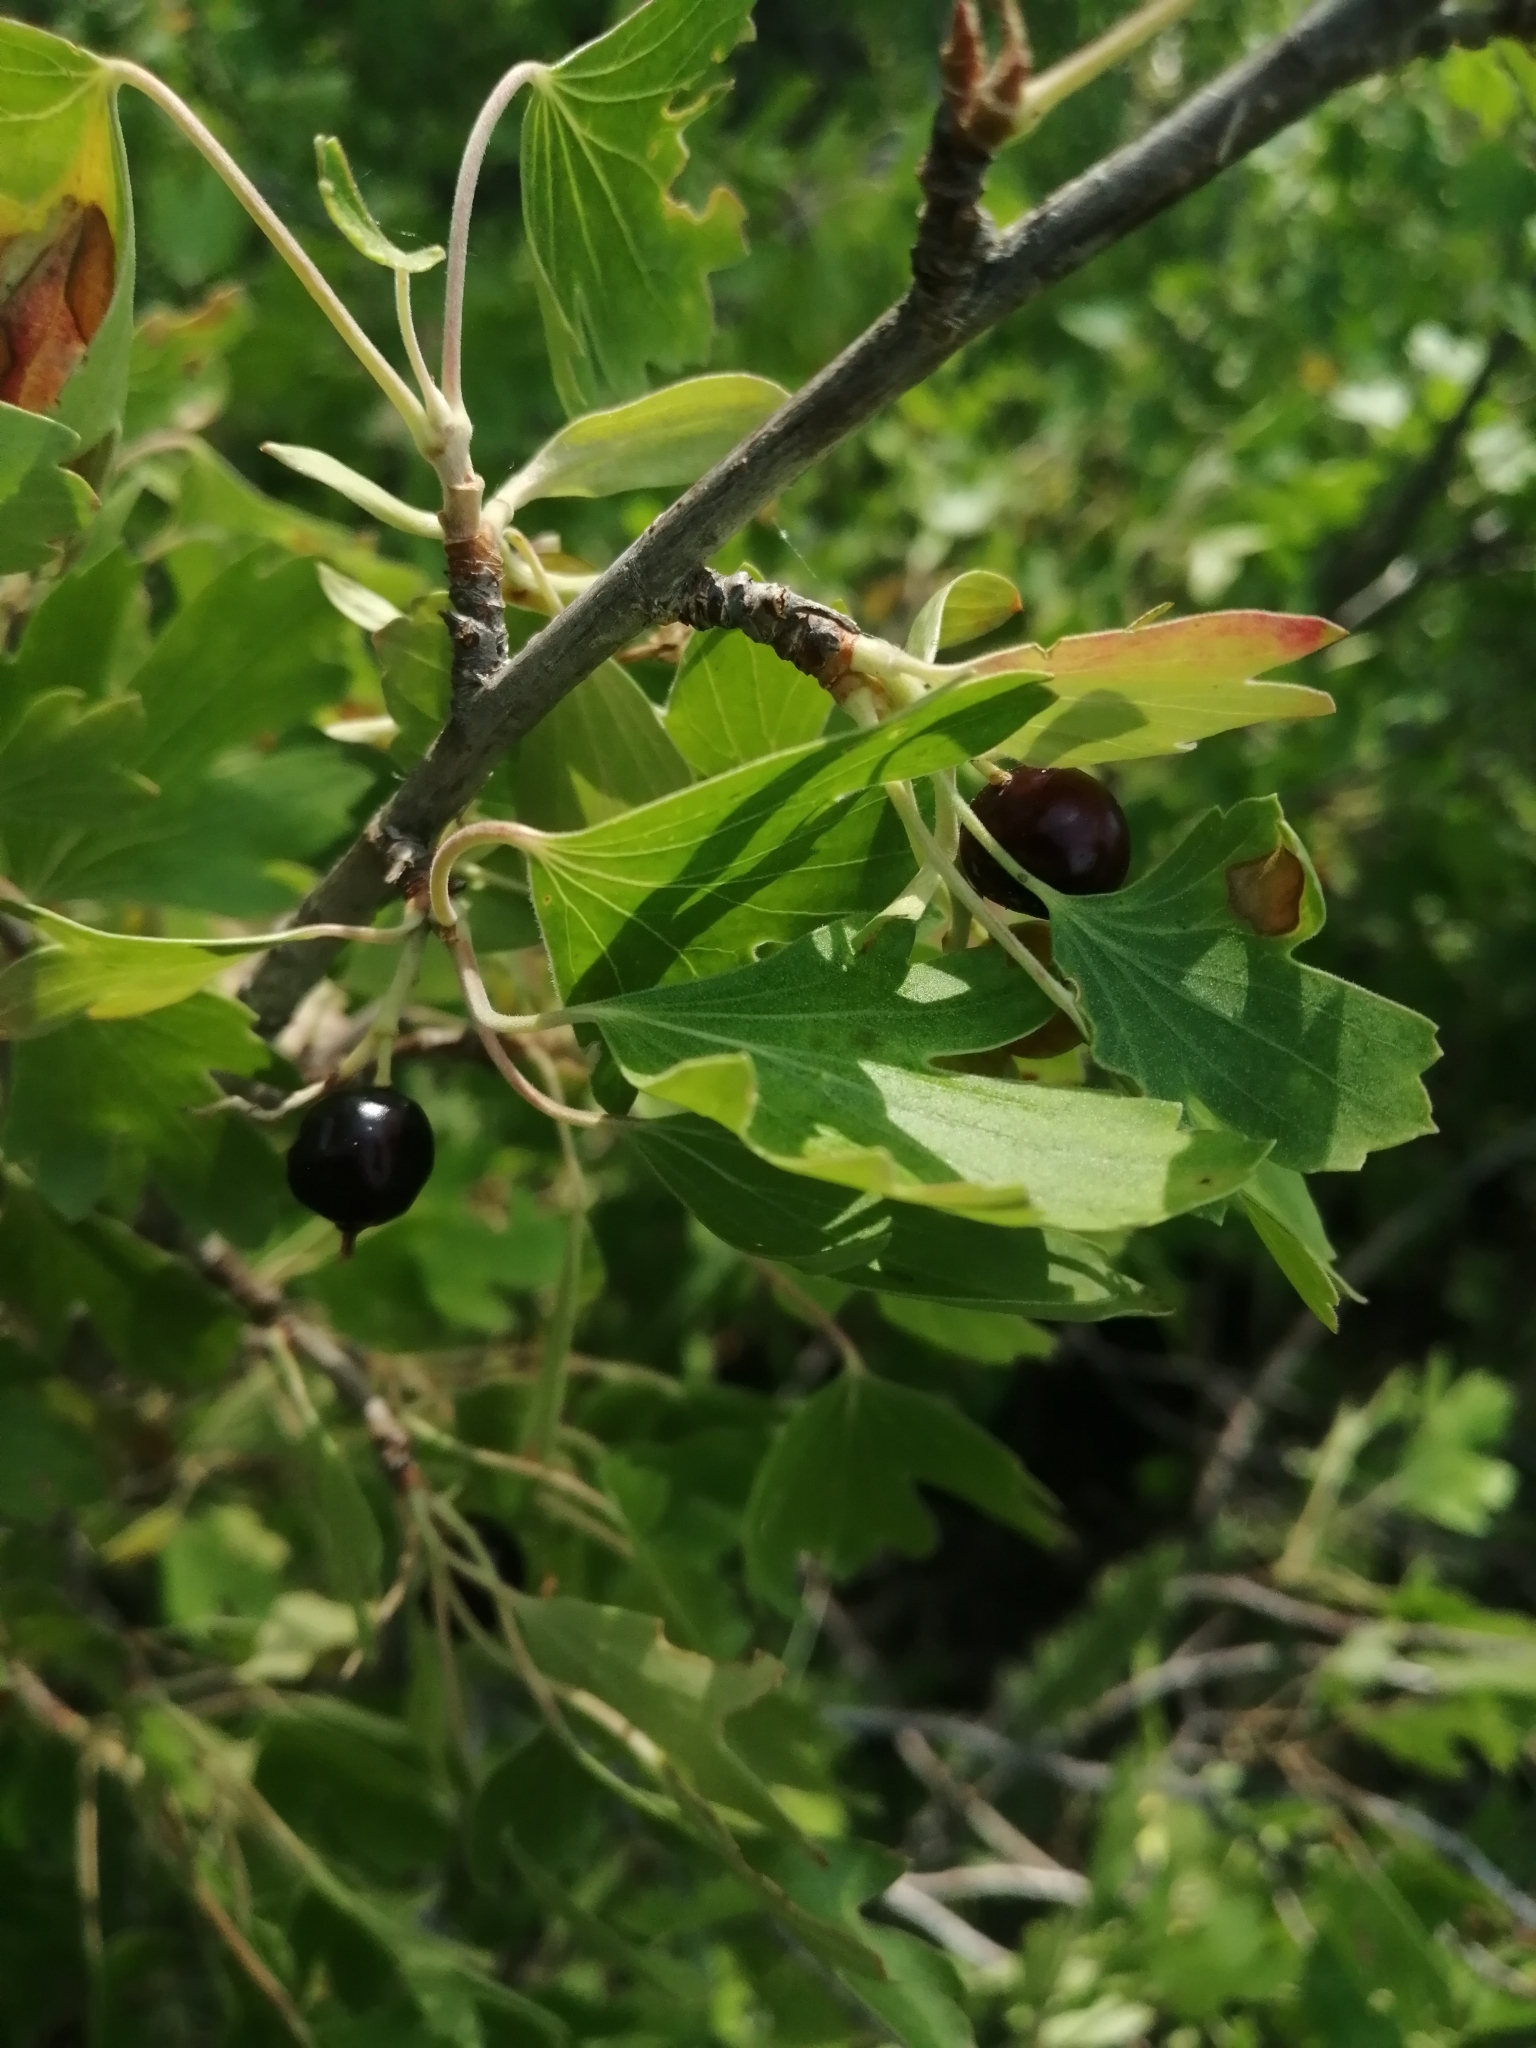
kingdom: Plantae
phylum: Tracheophyta
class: Magnoliopsida
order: Saxifragales
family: Grossulariaceae
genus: Ribes
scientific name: Ribes aureum
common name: Golden currant
